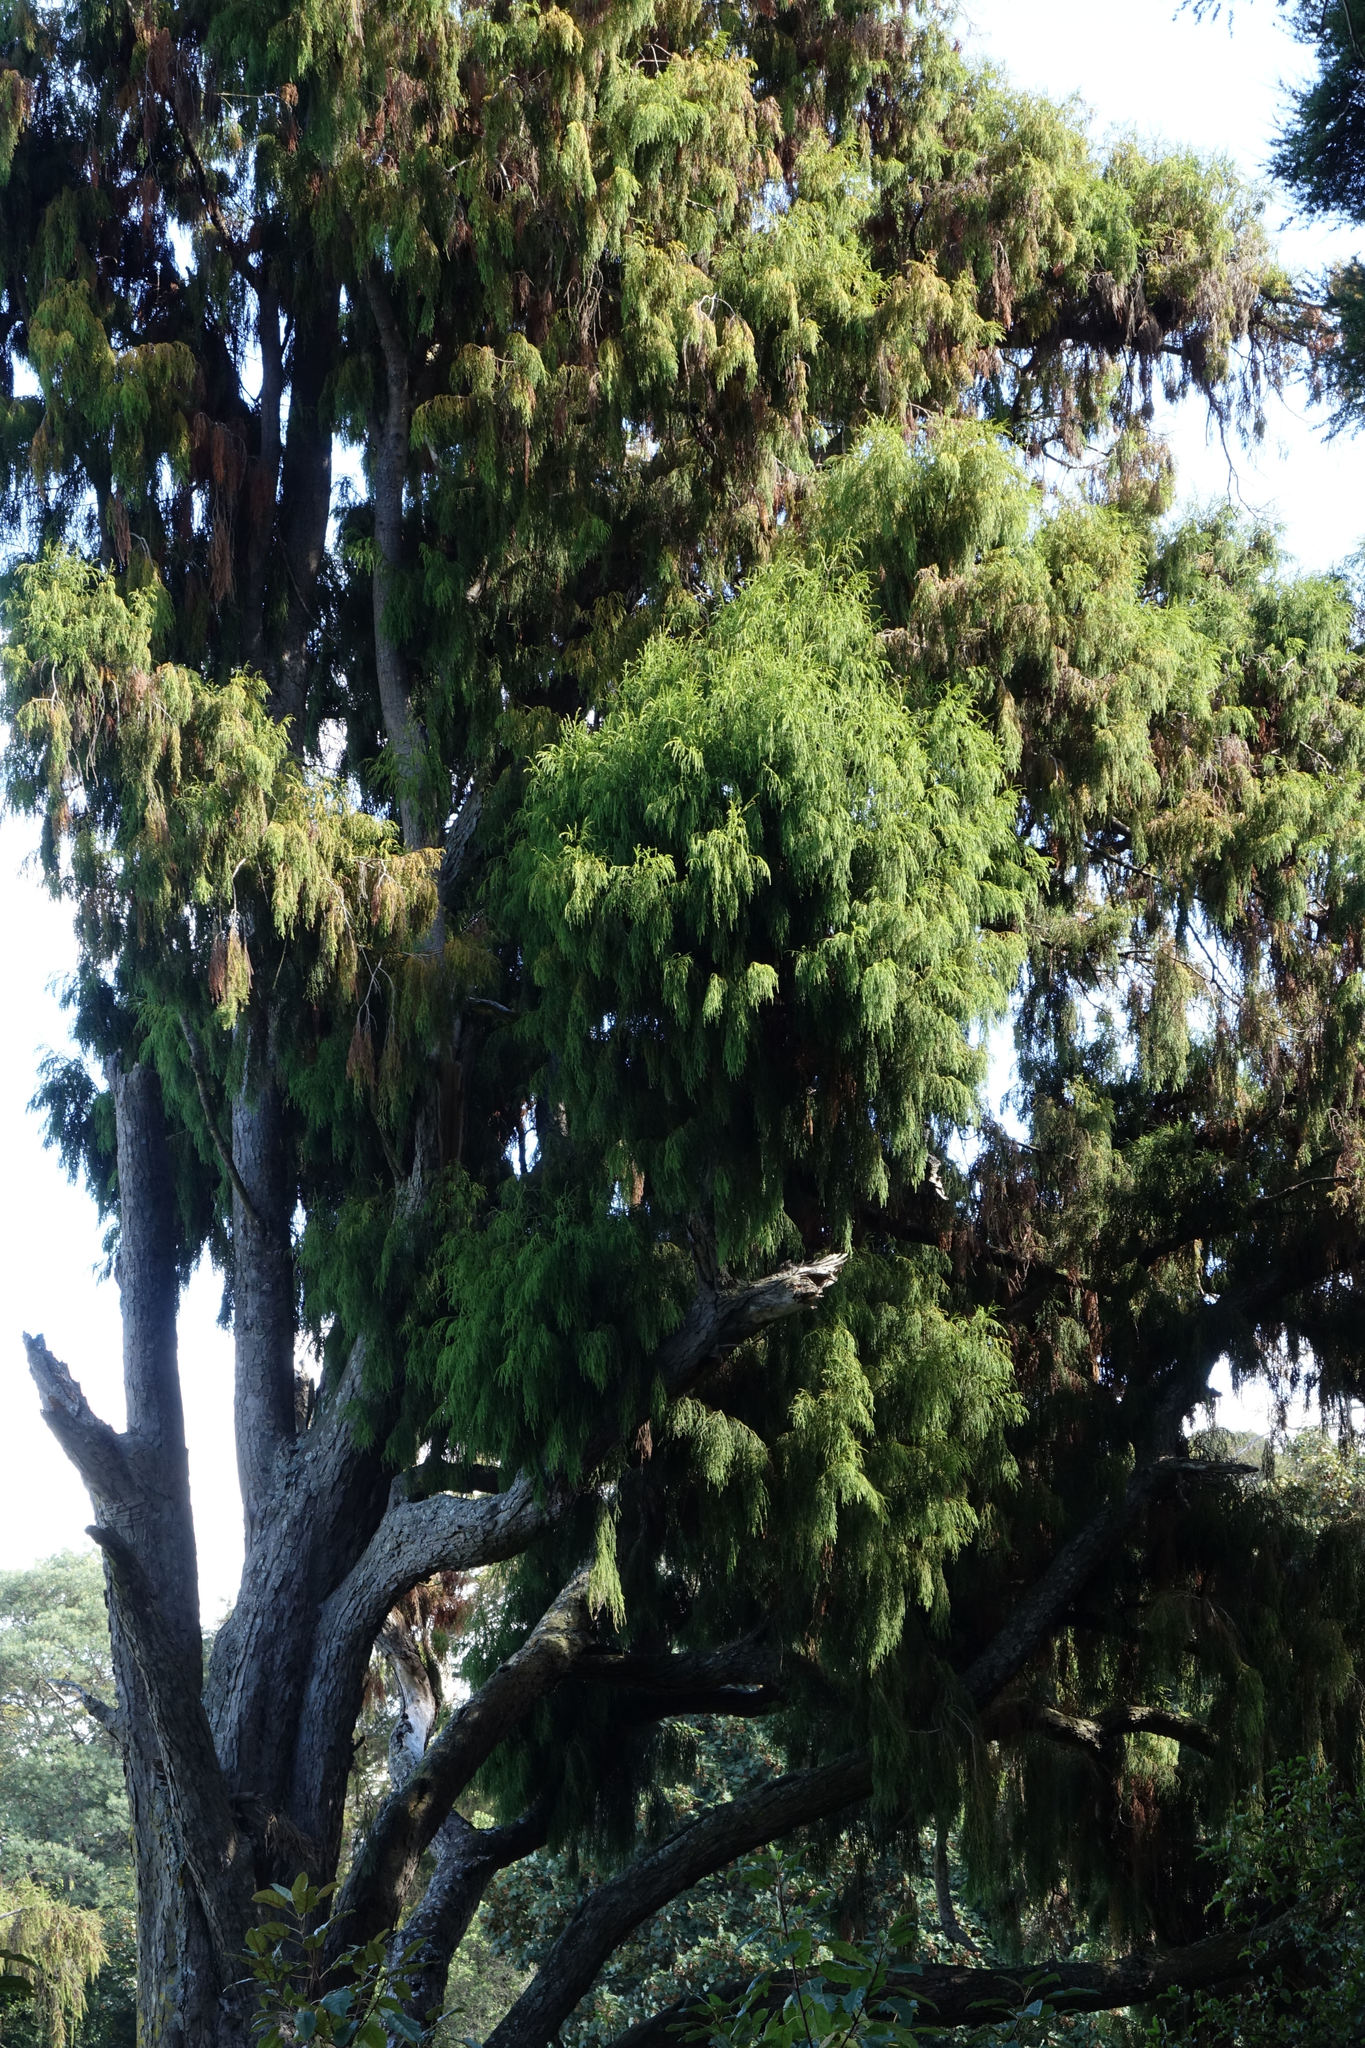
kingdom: Plantae
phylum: Tracheophyta
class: Pinopsida
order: Pinales
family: Podocarpaceae
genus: Dacrydium
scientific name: Dacrydium cupressinum
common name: Red pine
